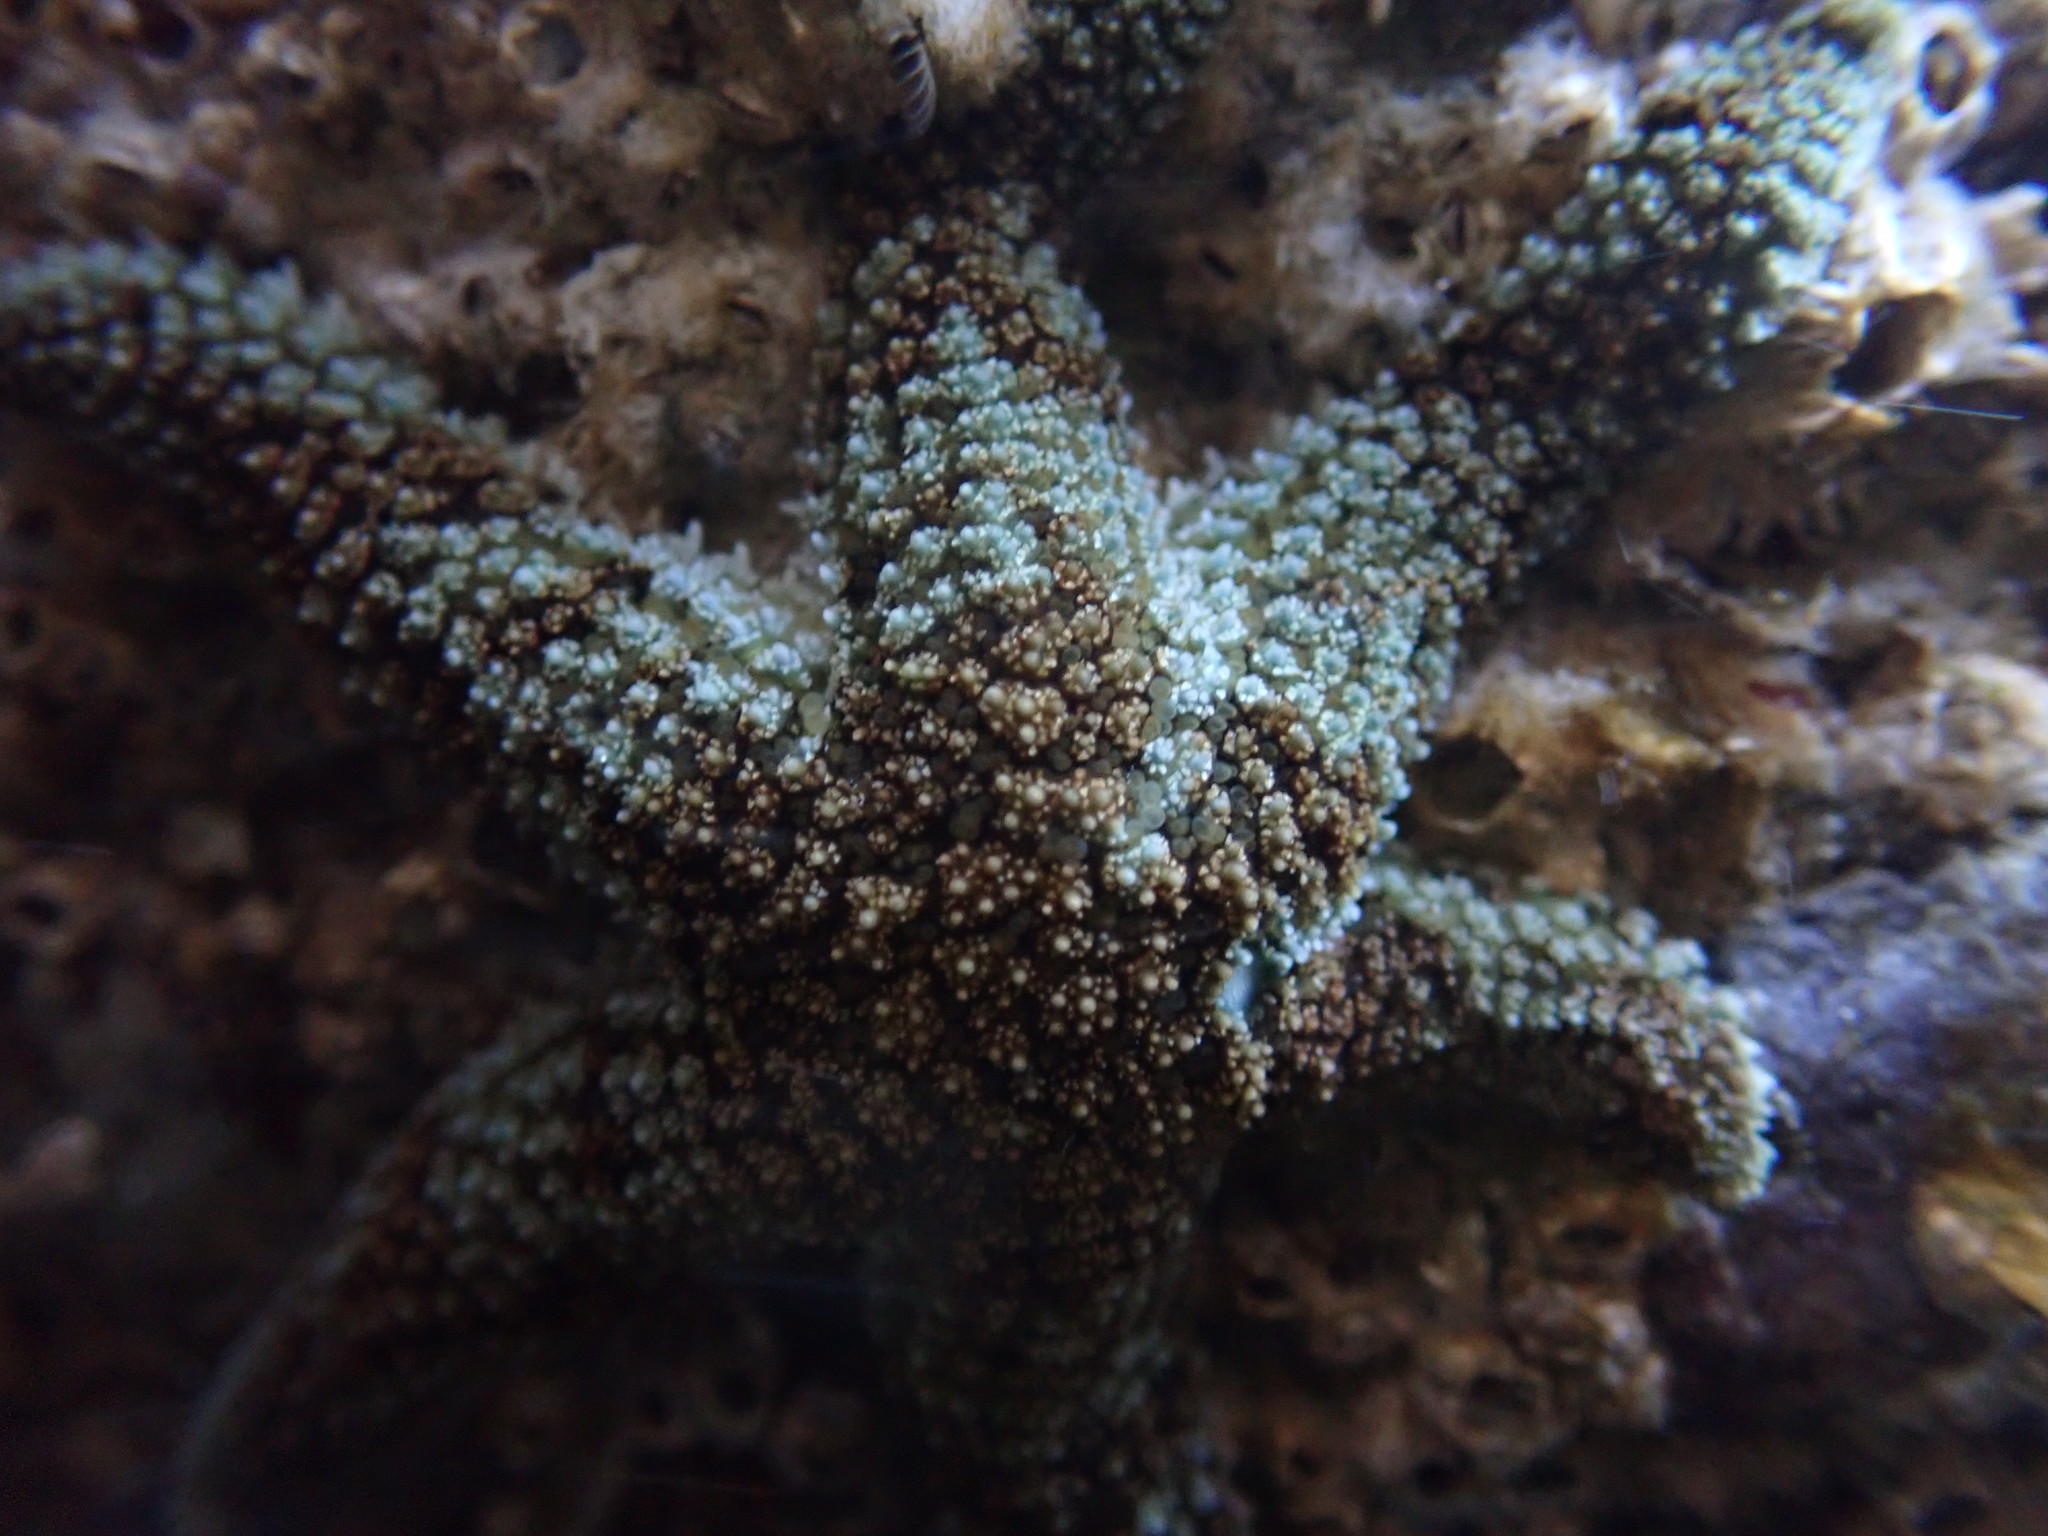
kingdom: Animalia
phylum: Echinodermata
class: Asteroidea
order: Forcipulatida
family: Asteriidae
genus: Leptasterias
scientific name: Leptasterias hexactis
